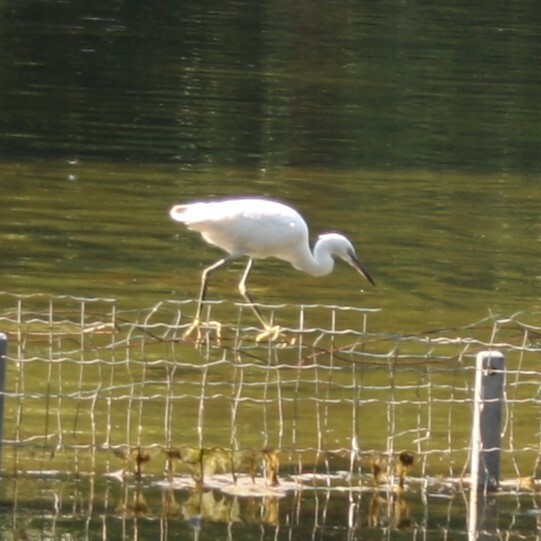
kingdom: Animalia
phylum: Chordata
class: Aves
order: Pelecaniformes
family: Ardeidae
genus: Egretta
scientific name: Egretta garzetta
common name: Little egret
